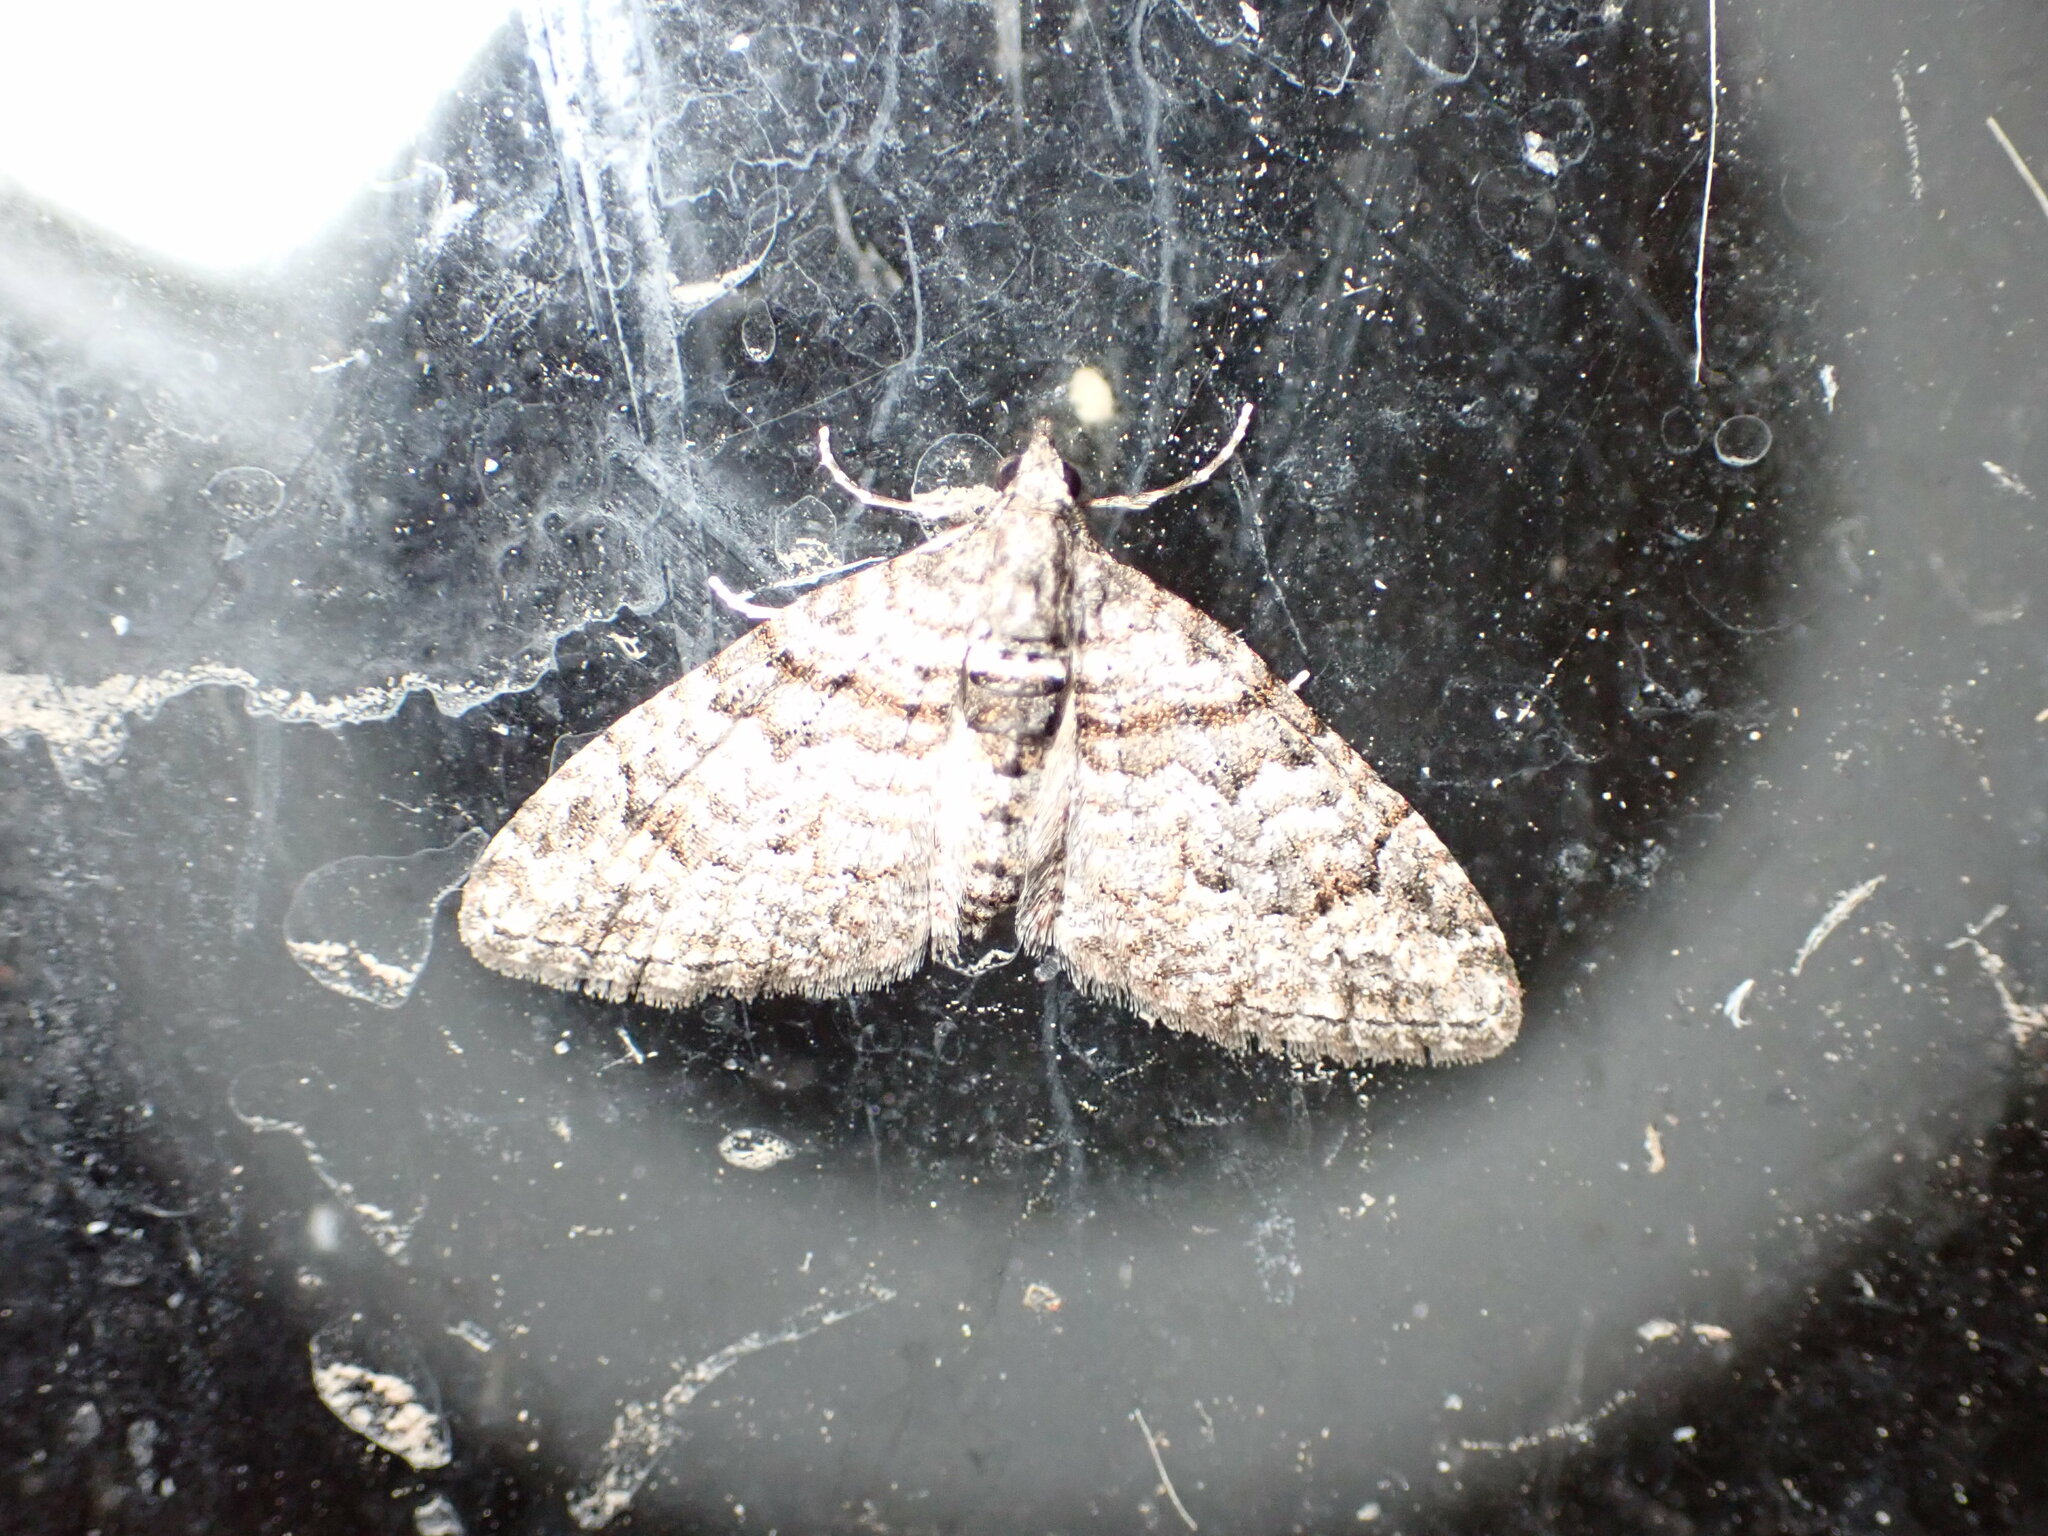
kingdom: Animalia
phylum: Arthropoda
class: Insecta
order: Lepidoptera
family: Geometridae
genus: Phrissogonus
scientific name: Phrissogonus laticostata
